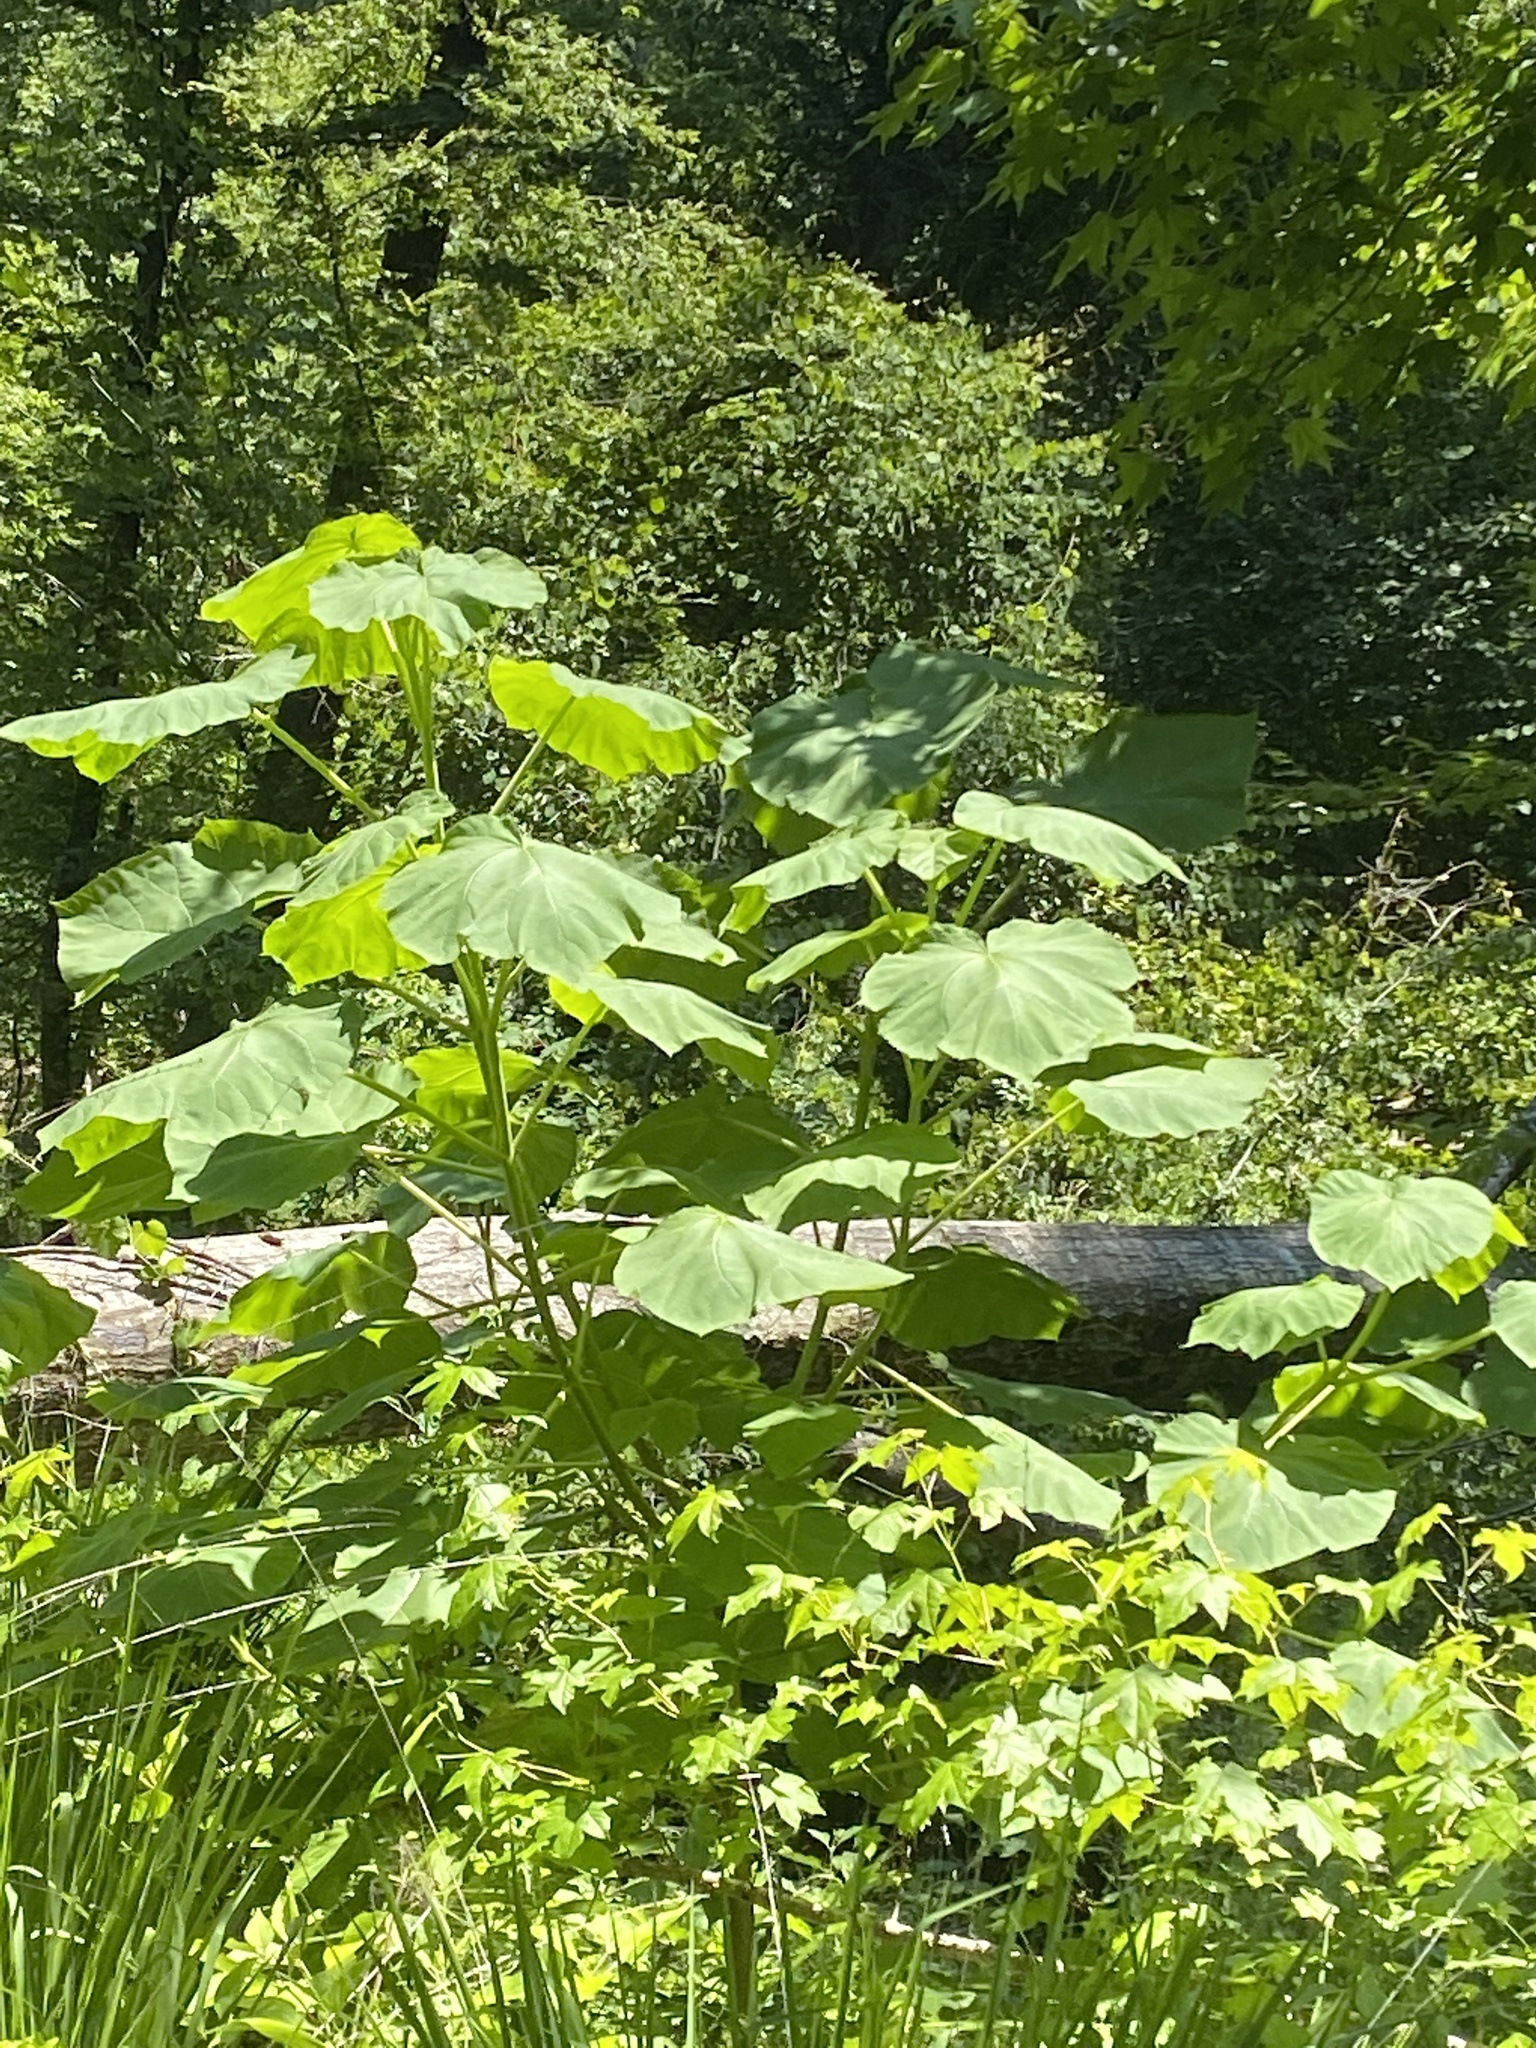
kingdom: Plantae
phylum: Tracheophyta
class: Magnoliopsida
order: Lamiales
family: Paulowniaceae
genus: Paulownia
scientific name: Paulownia tomentosa
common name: Foxglove-tree
